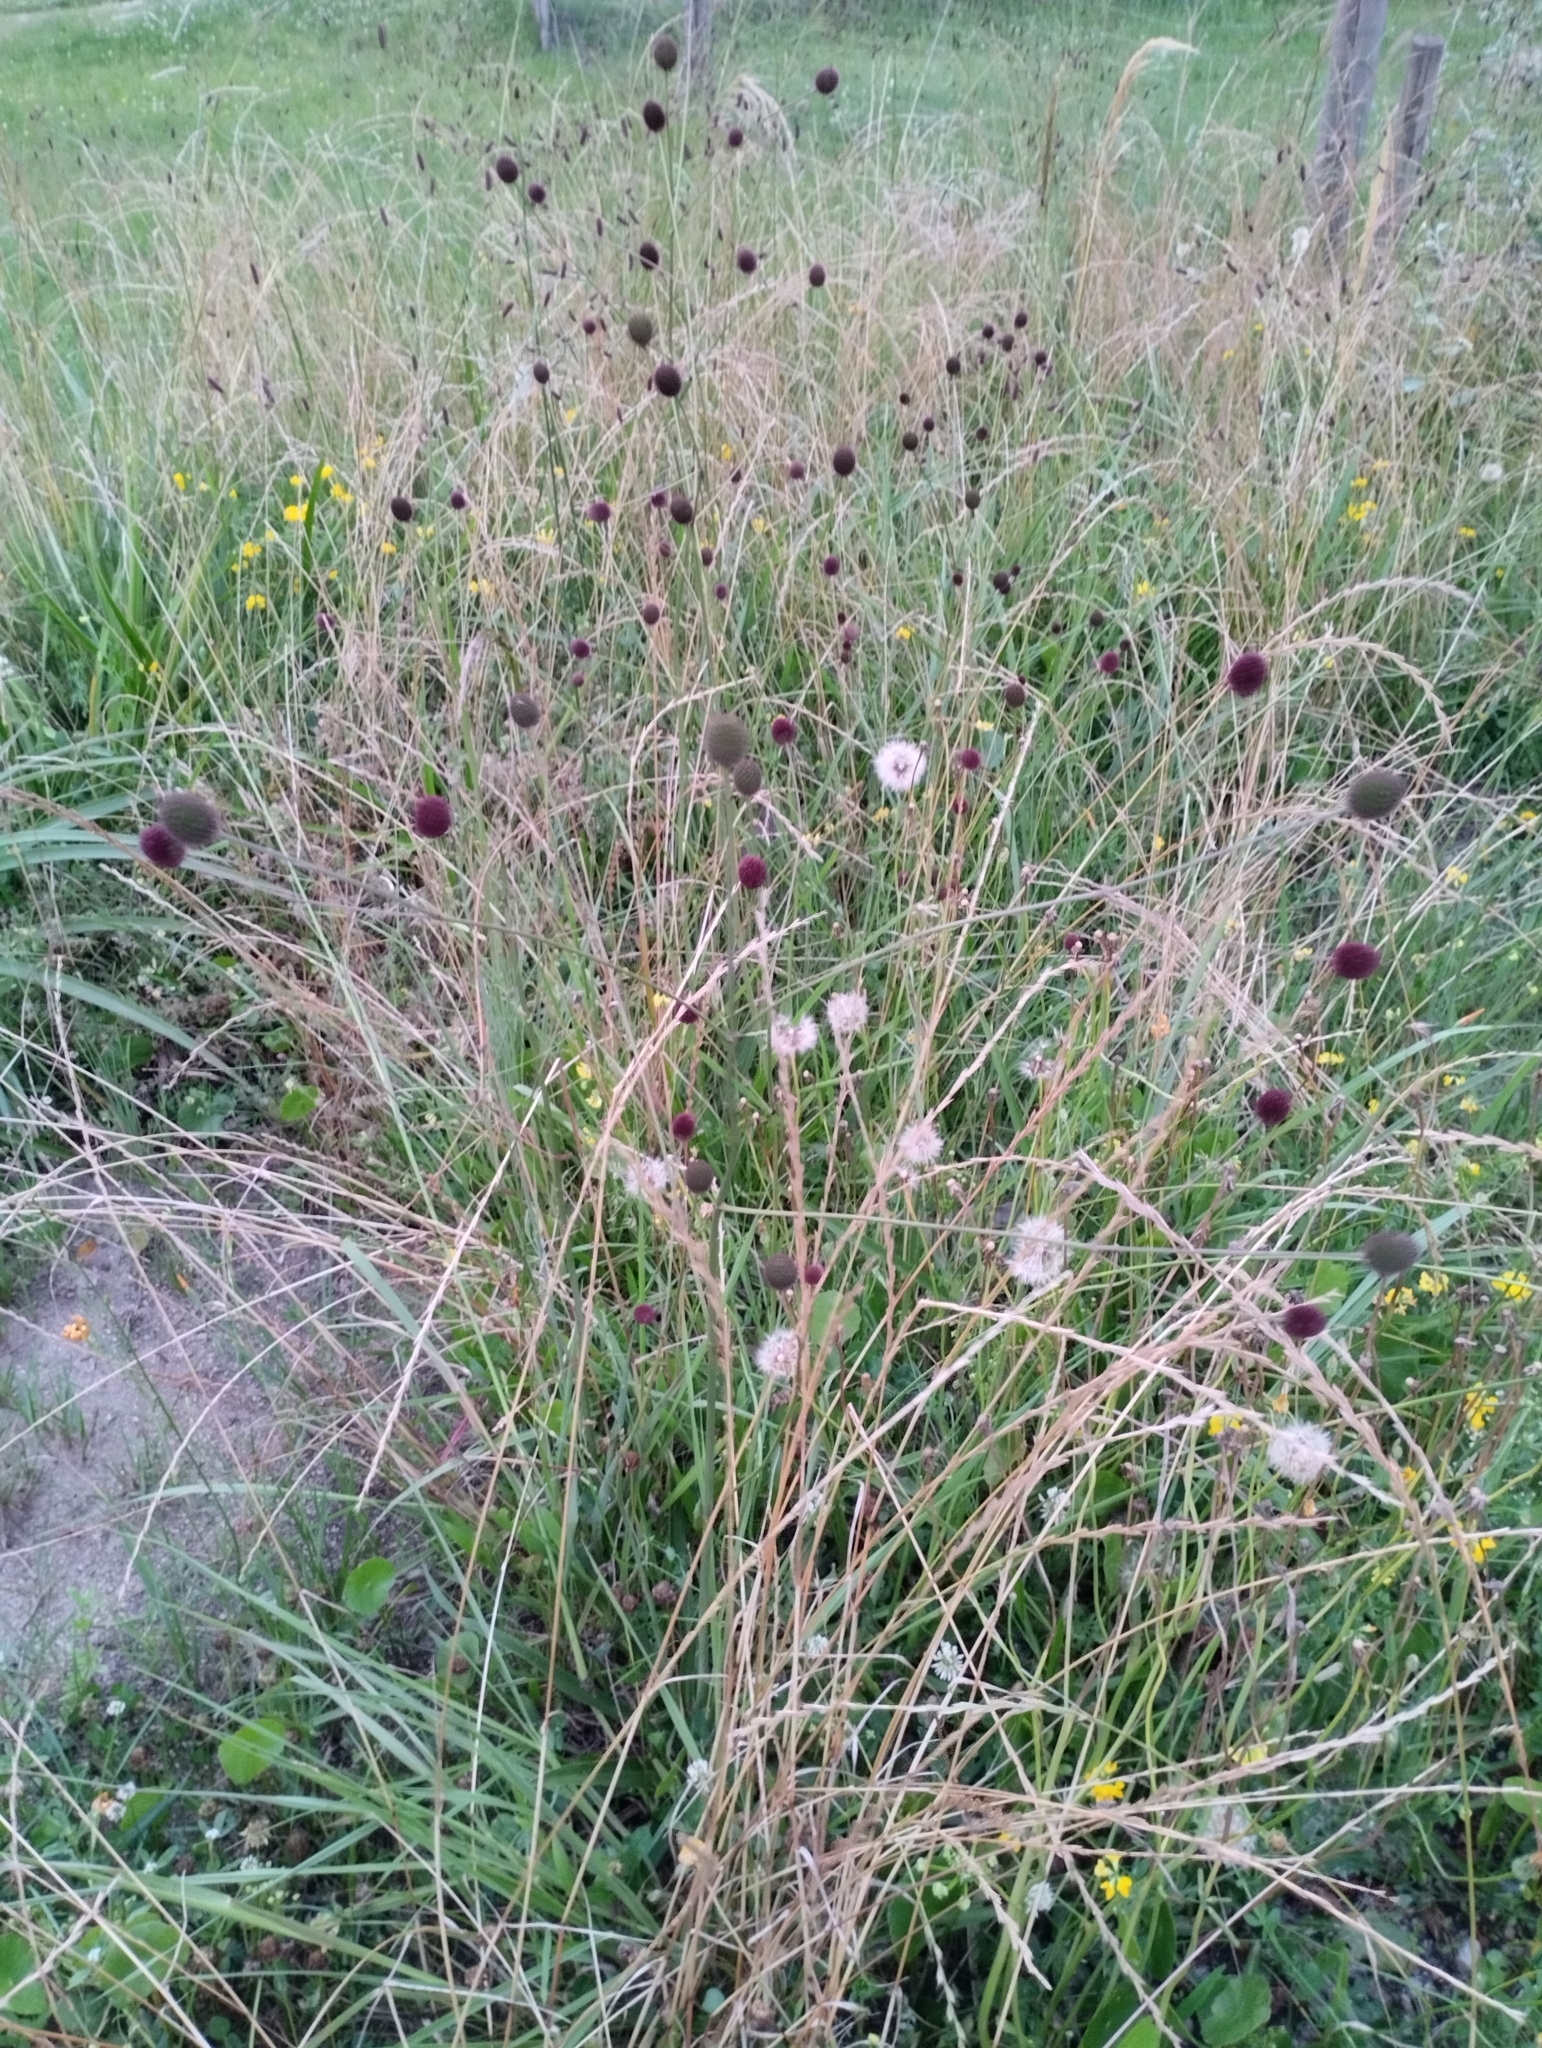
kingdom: Plantae
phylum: Tracheophyta
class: Magnoliopsida
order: Apiales
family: Apiaceae
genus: Eryngium
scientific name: Eryngium sanguisorba
